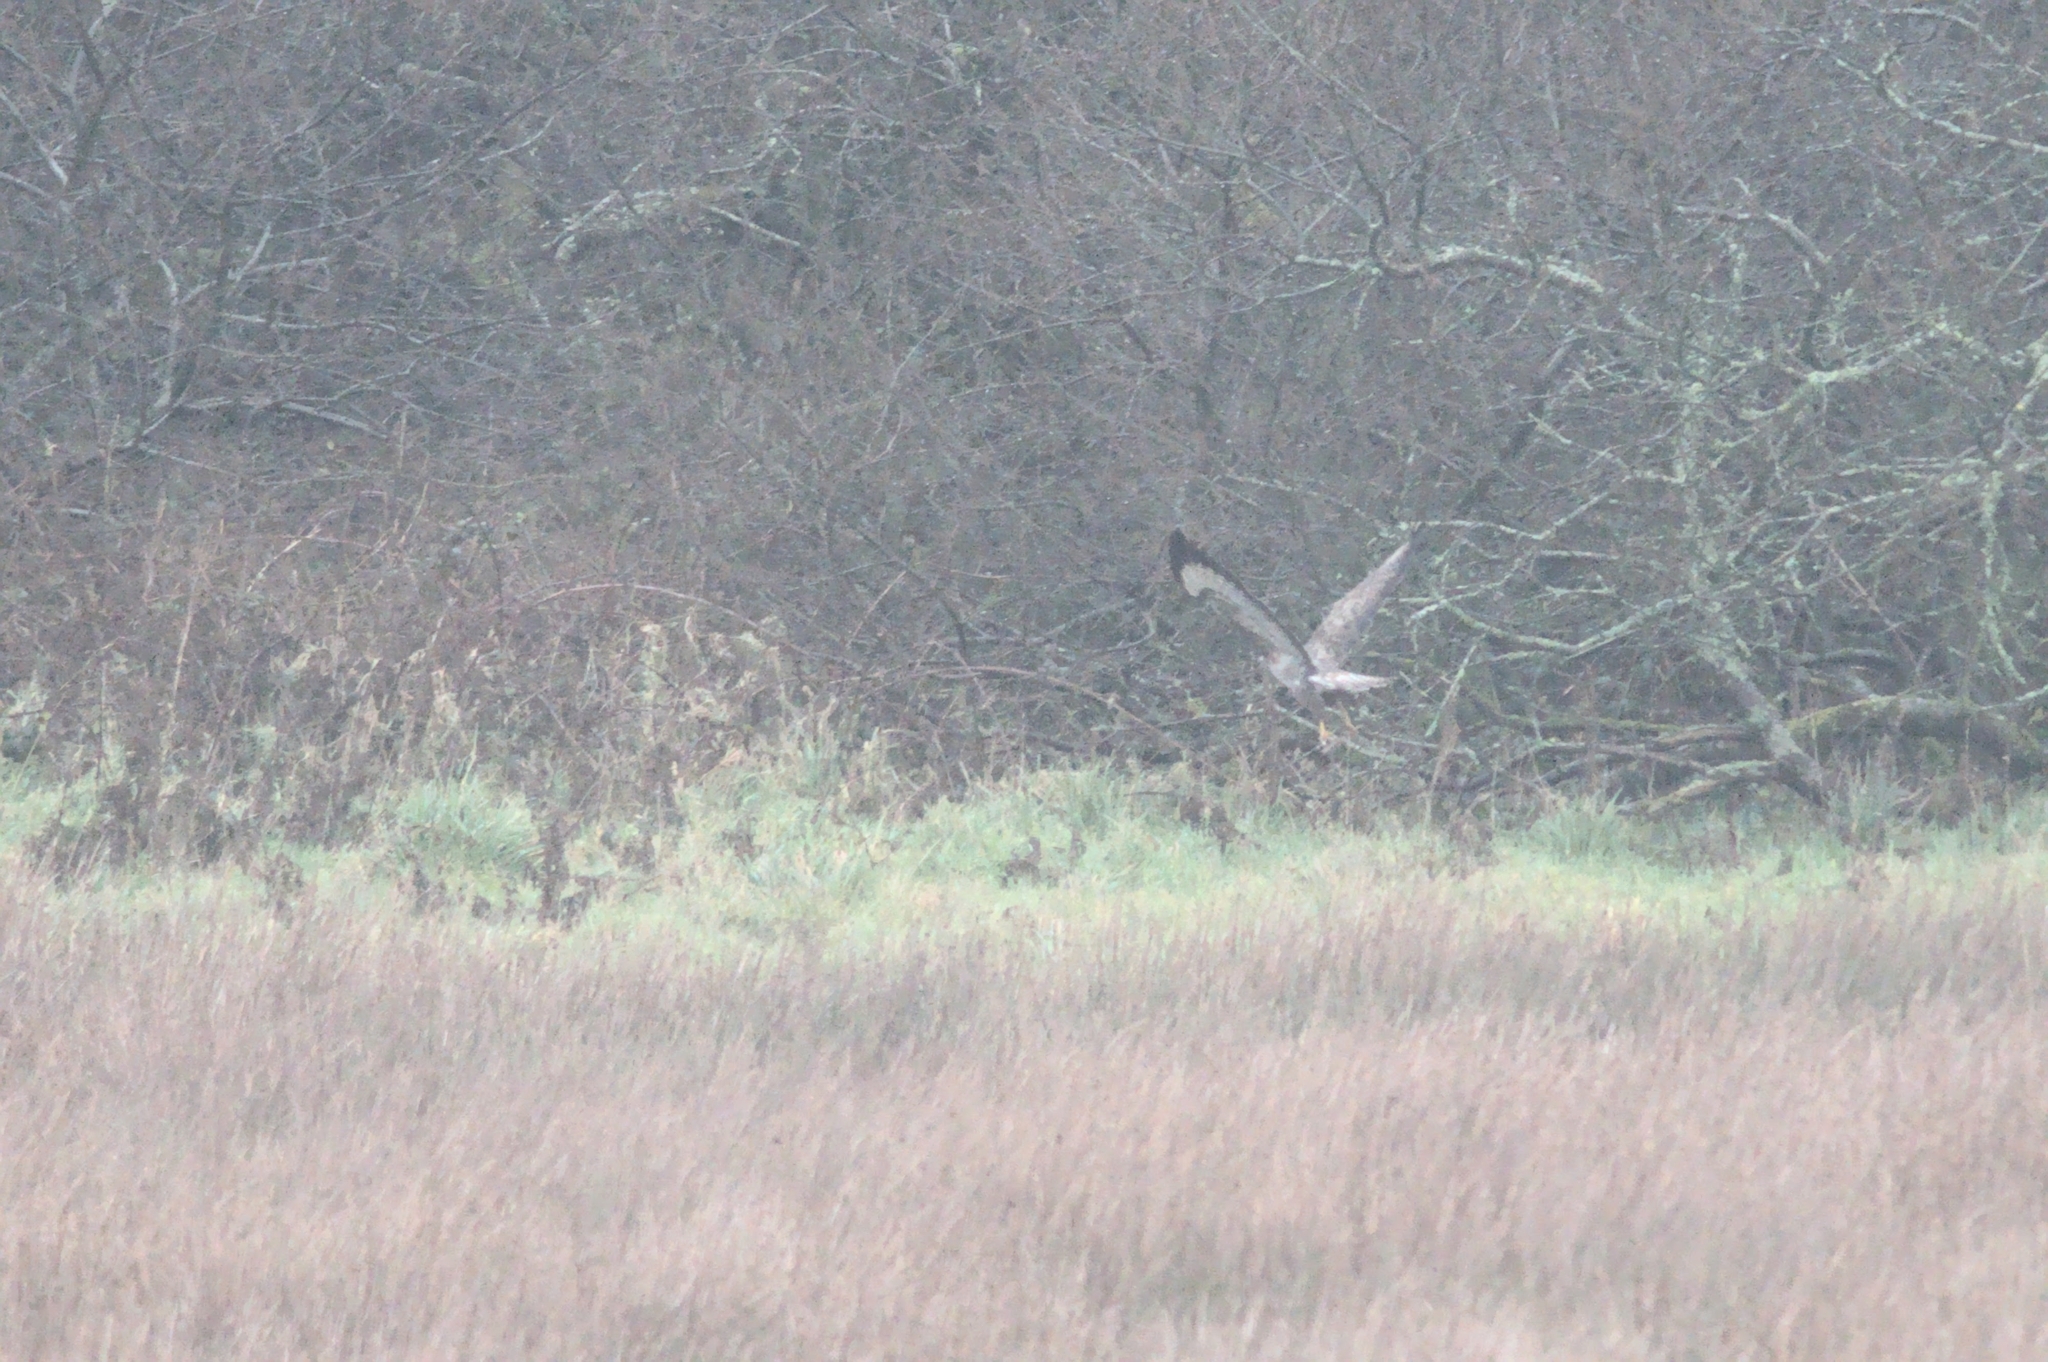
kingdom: Animalia
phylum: Chordata
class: Aves
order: Accipitriformes
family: Accipitridae
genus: Buteo
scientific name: Buteo buteo
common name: Common buzzard
